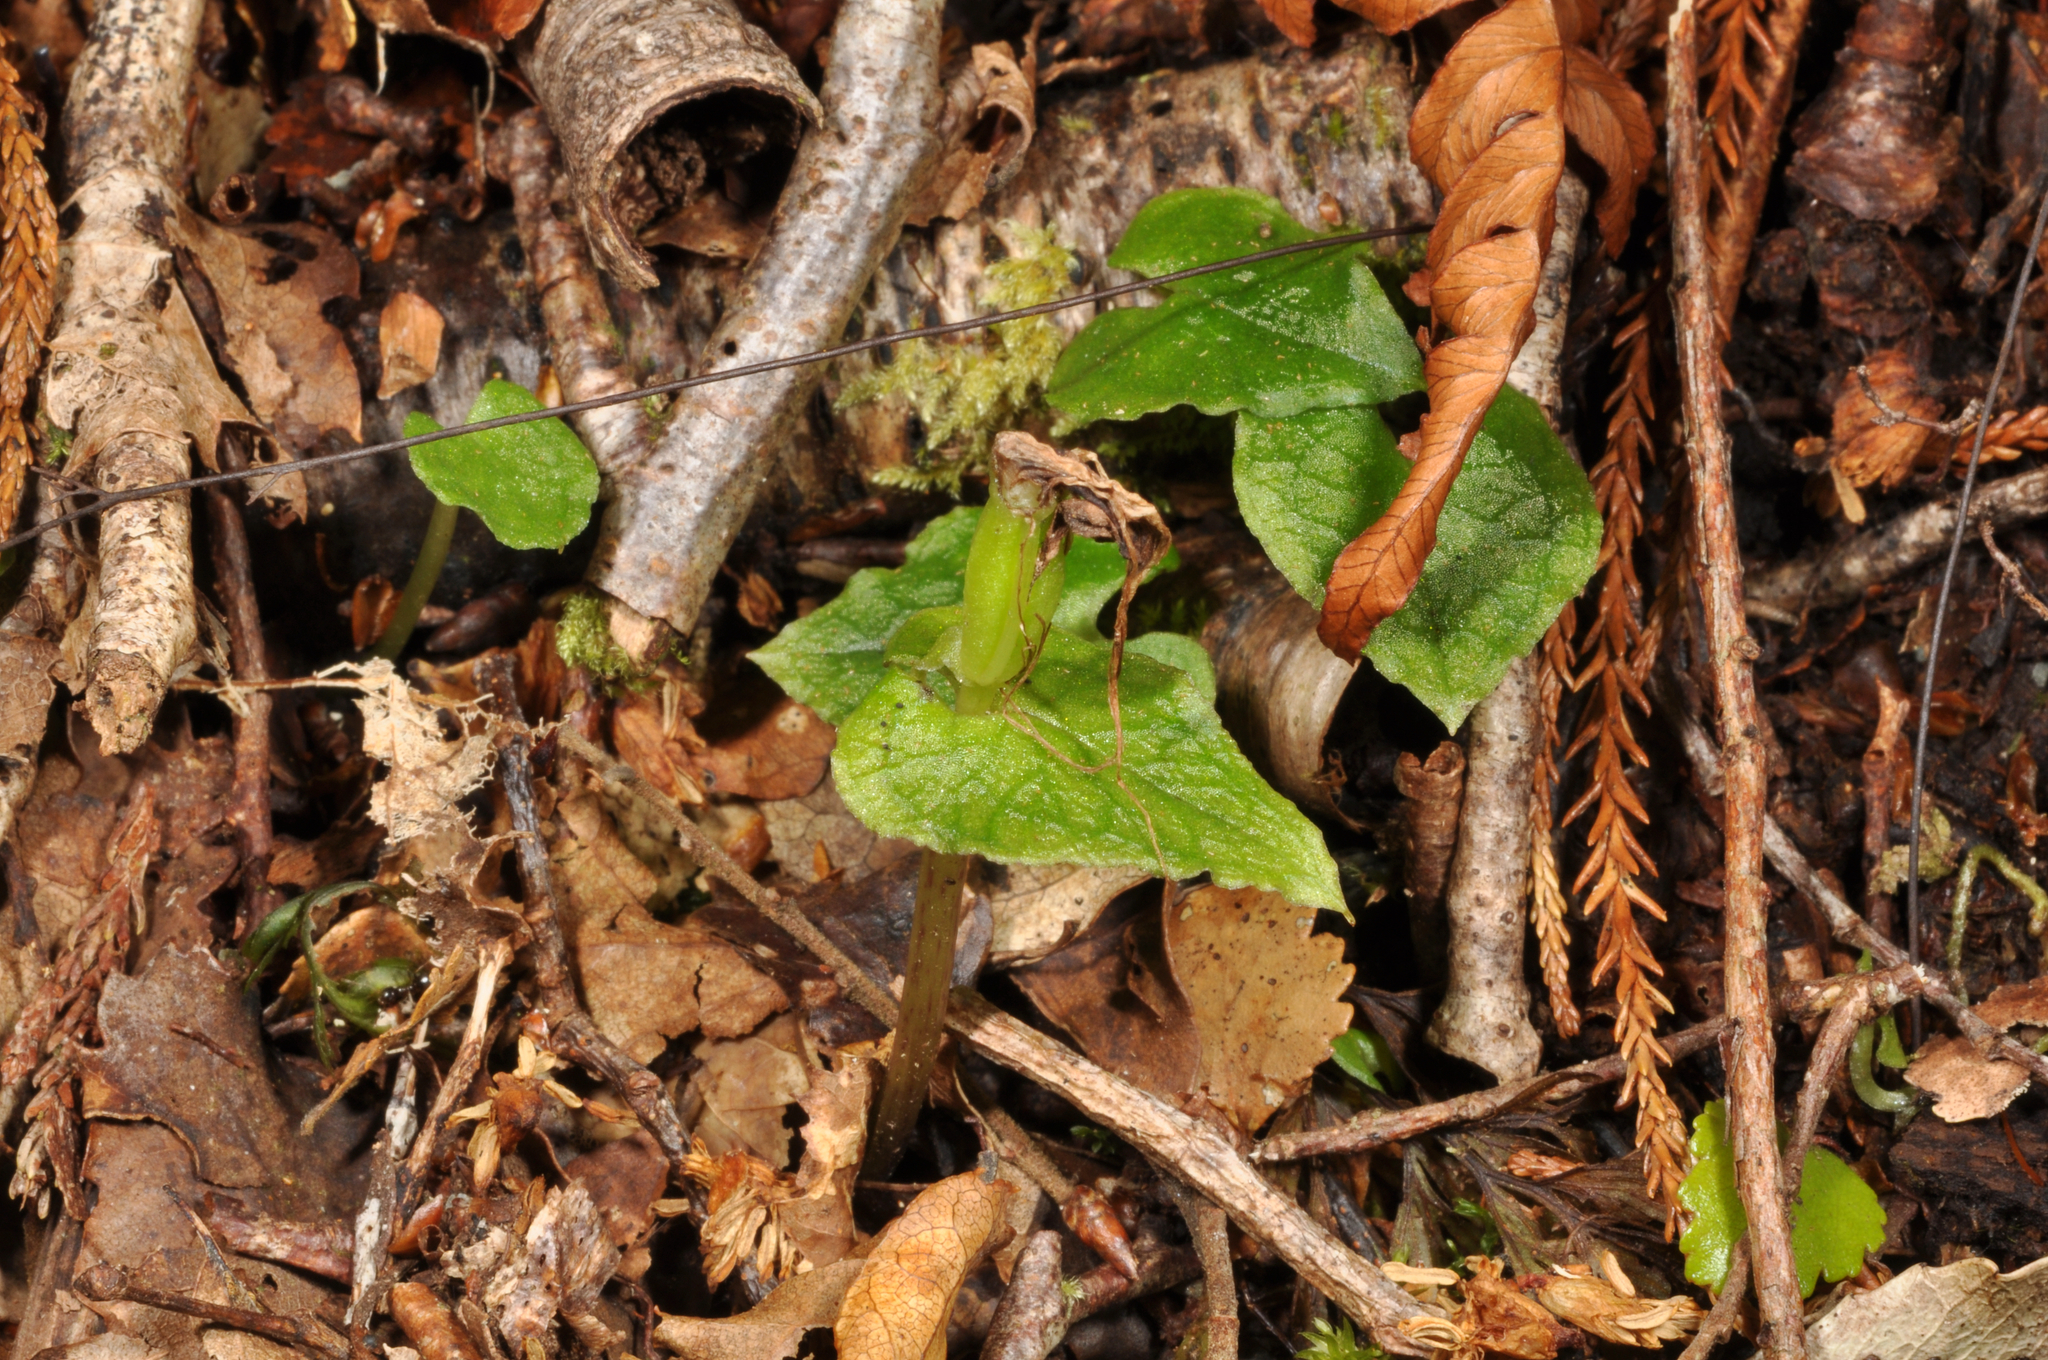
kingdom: Plantae
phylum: Tracheophyta
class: Liliopsida
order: Asparagales
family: Orchidaceae
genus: Corybas
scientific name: Corybas acuminatus
